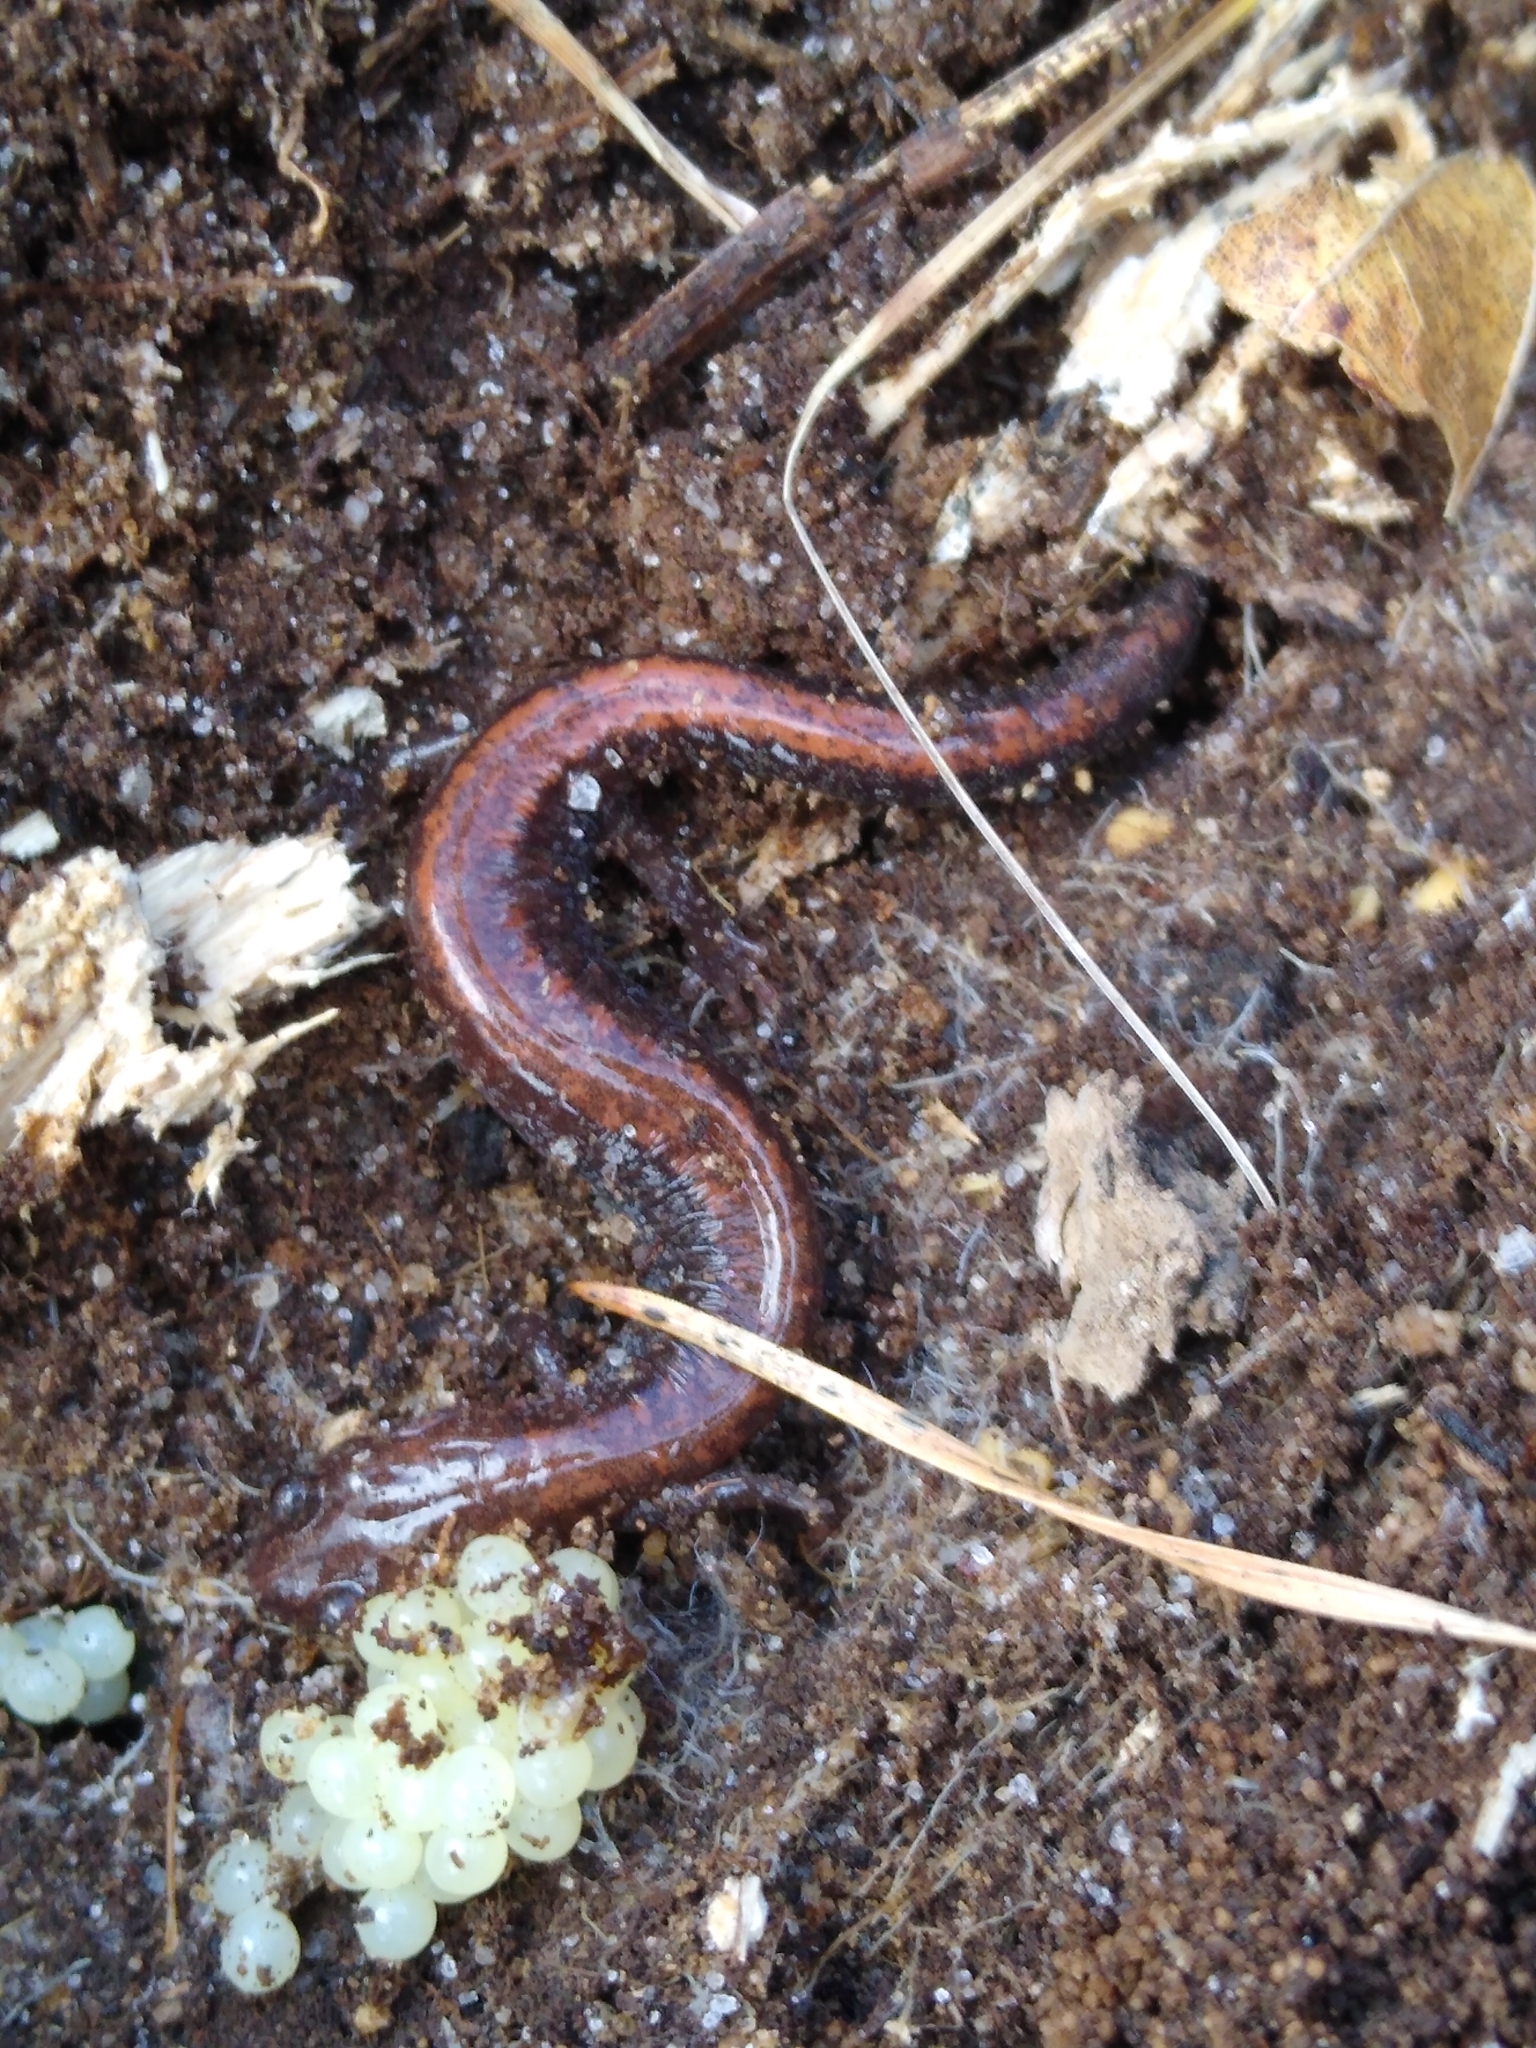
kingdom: Animalia
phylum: Chordata
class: Amphibia
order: Caudata
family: Plethodontidae
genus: Plethodon
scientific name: Plethodon cinereus
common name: Redback salamander
